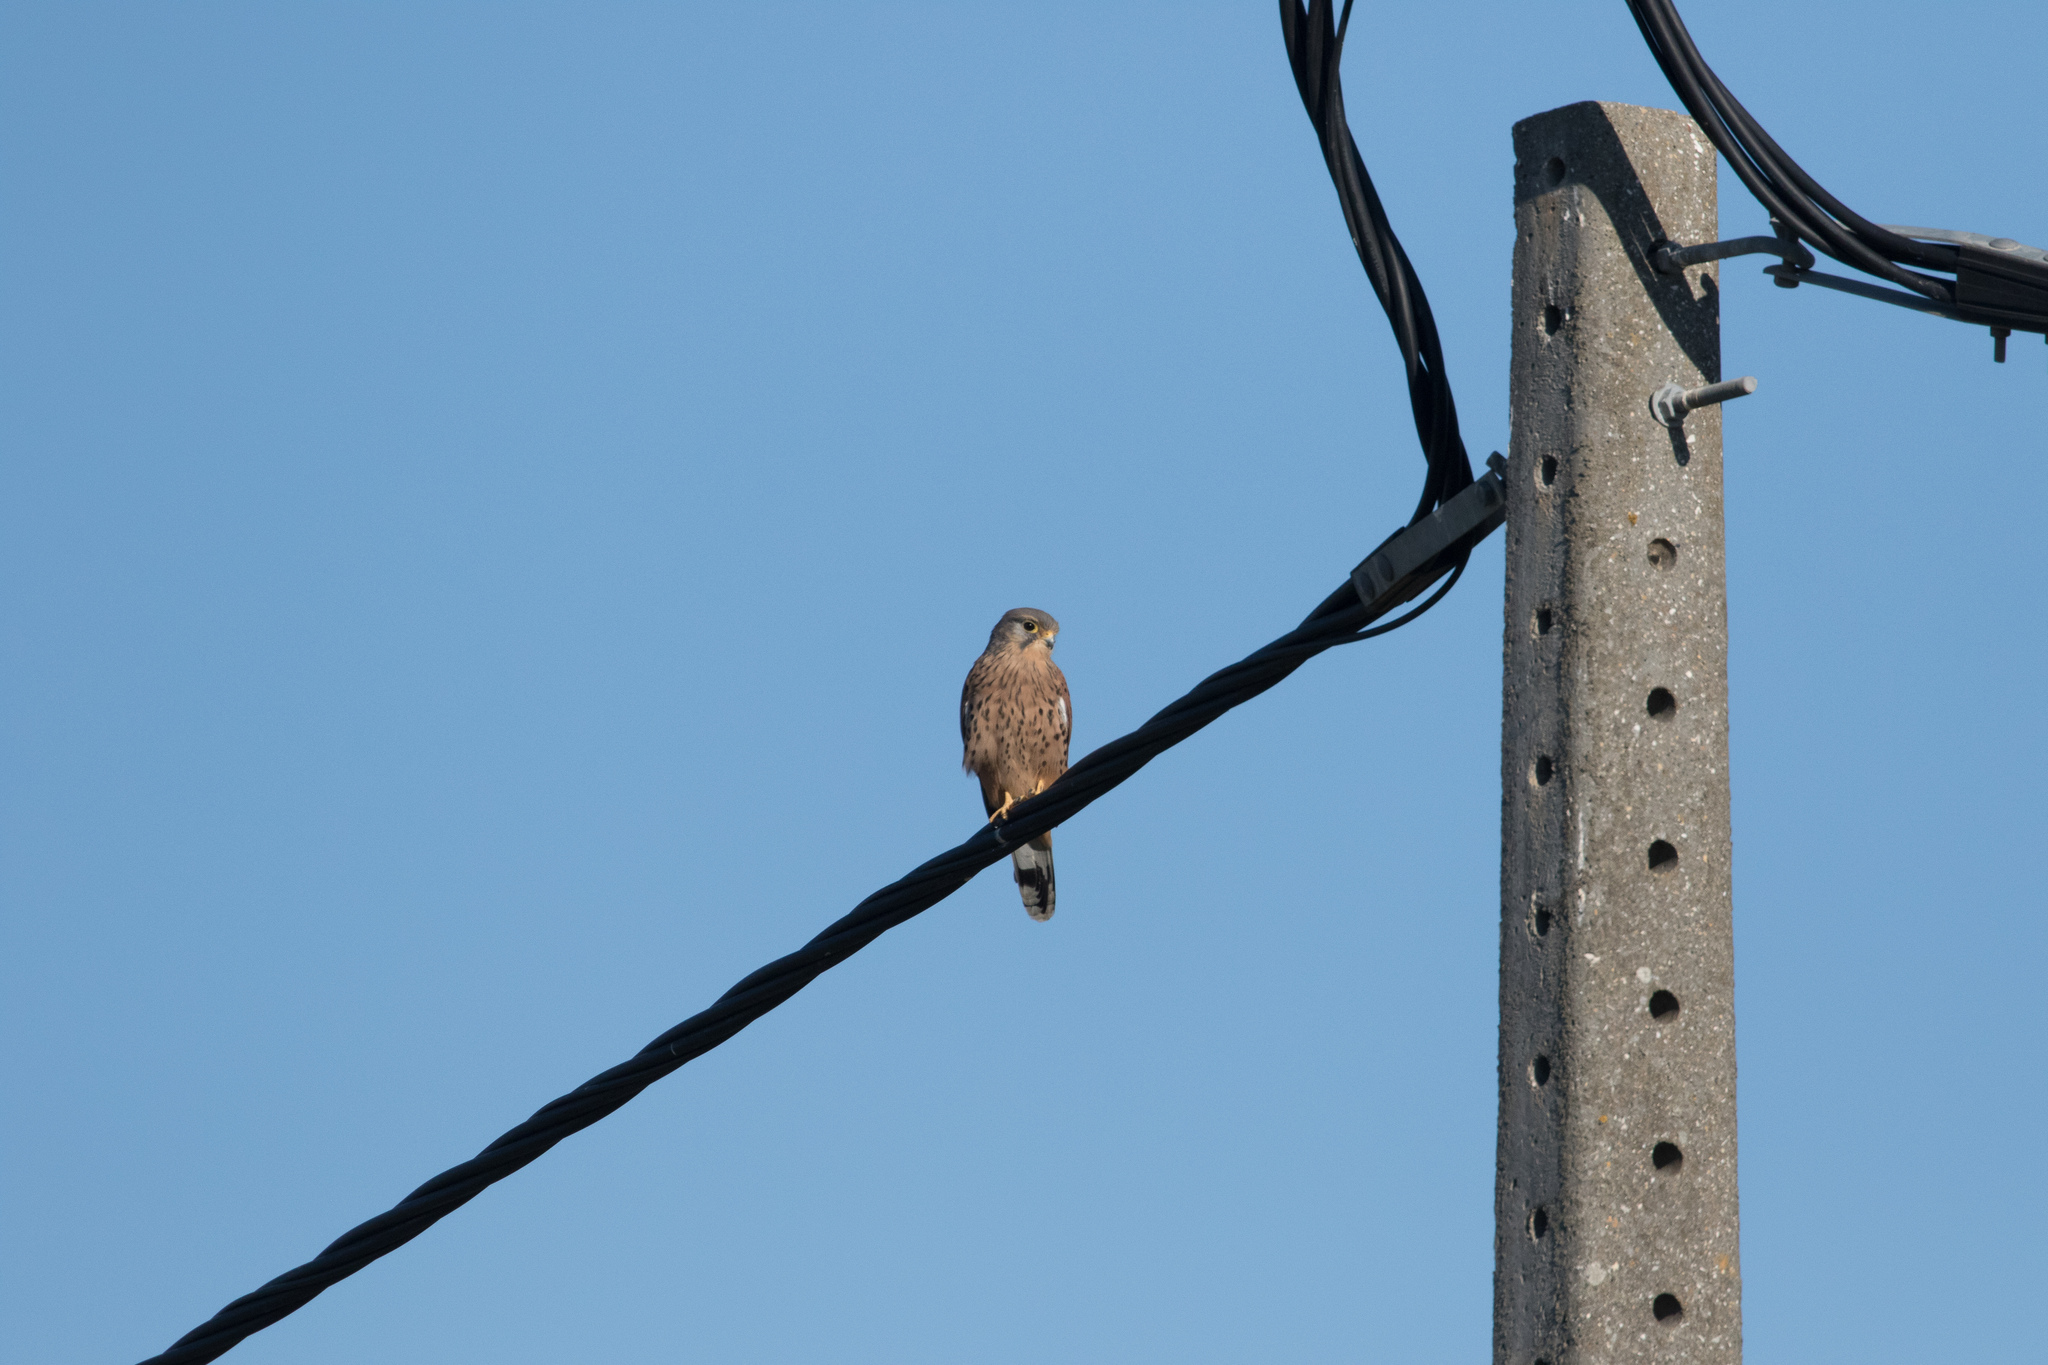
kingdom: Animalia
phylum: Chordata
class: Aves
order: Falconiformes
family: Falconidae
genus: Falco
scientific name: Falco tinnunculus
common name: Common kestrel
